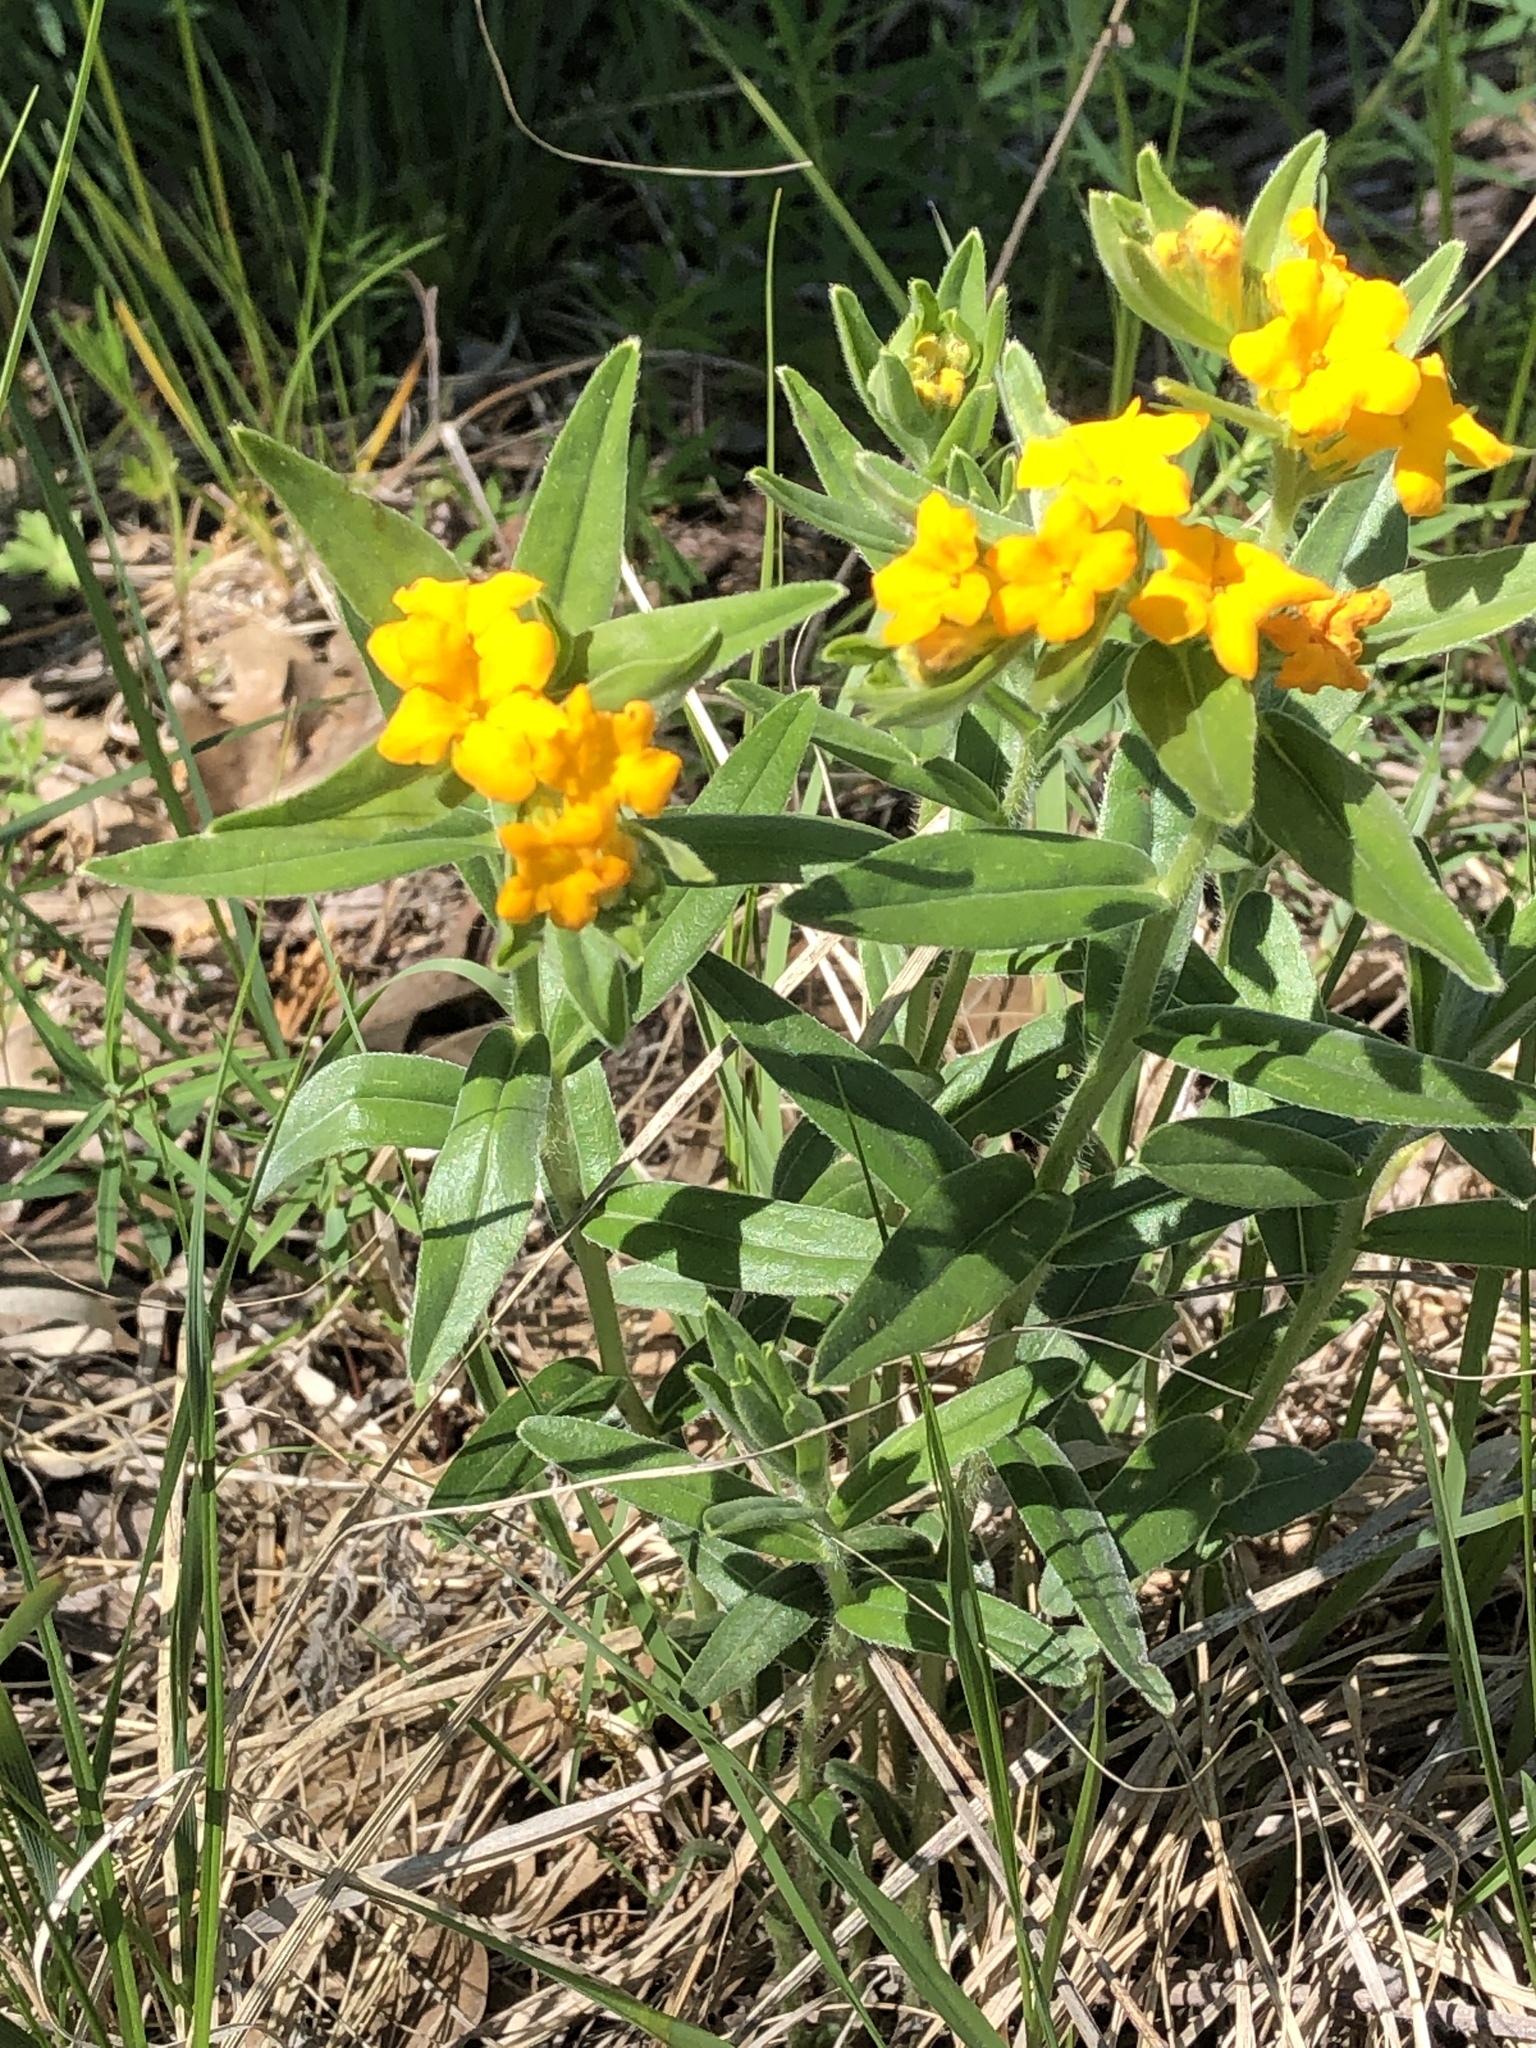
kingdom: Plantae
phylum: Tracheophyta
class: Magnoliopsida
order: Boraginales
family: Boraginaceae
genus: Lithospermum
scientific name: Lithospermum canescens
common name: Hoary puccoon
